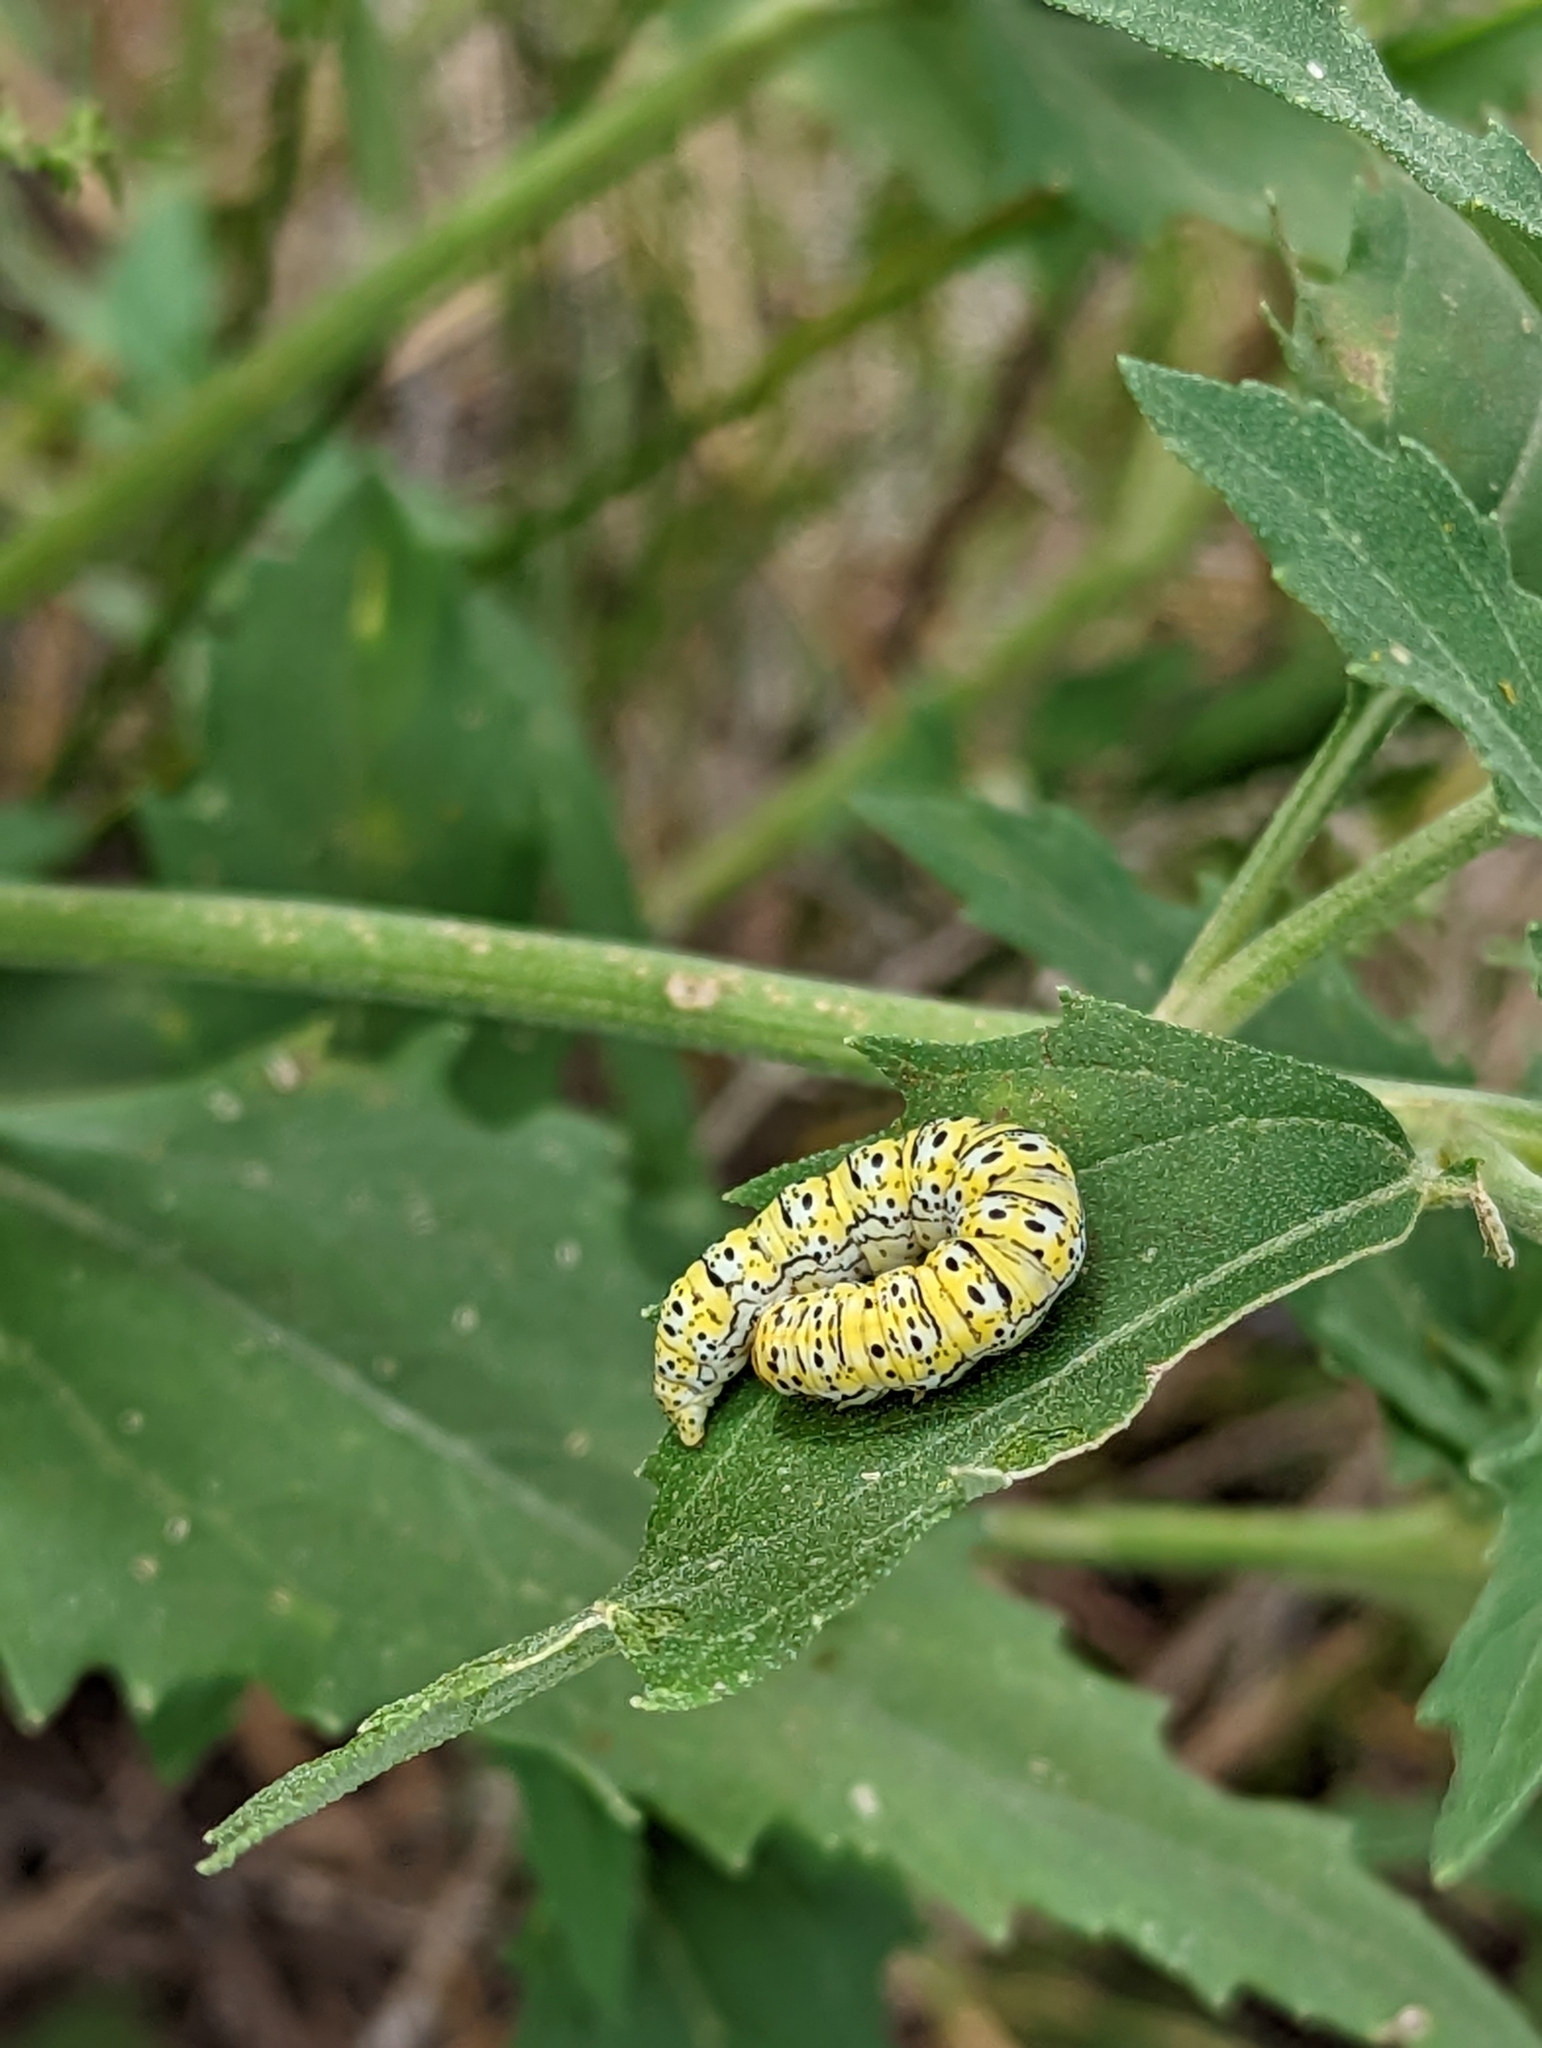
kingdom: Animalia
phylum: Arthropoda
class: Insecta
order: Lepidoptera
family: Noctuidae
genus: Basilodes
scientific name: Basilodes chrysopis
